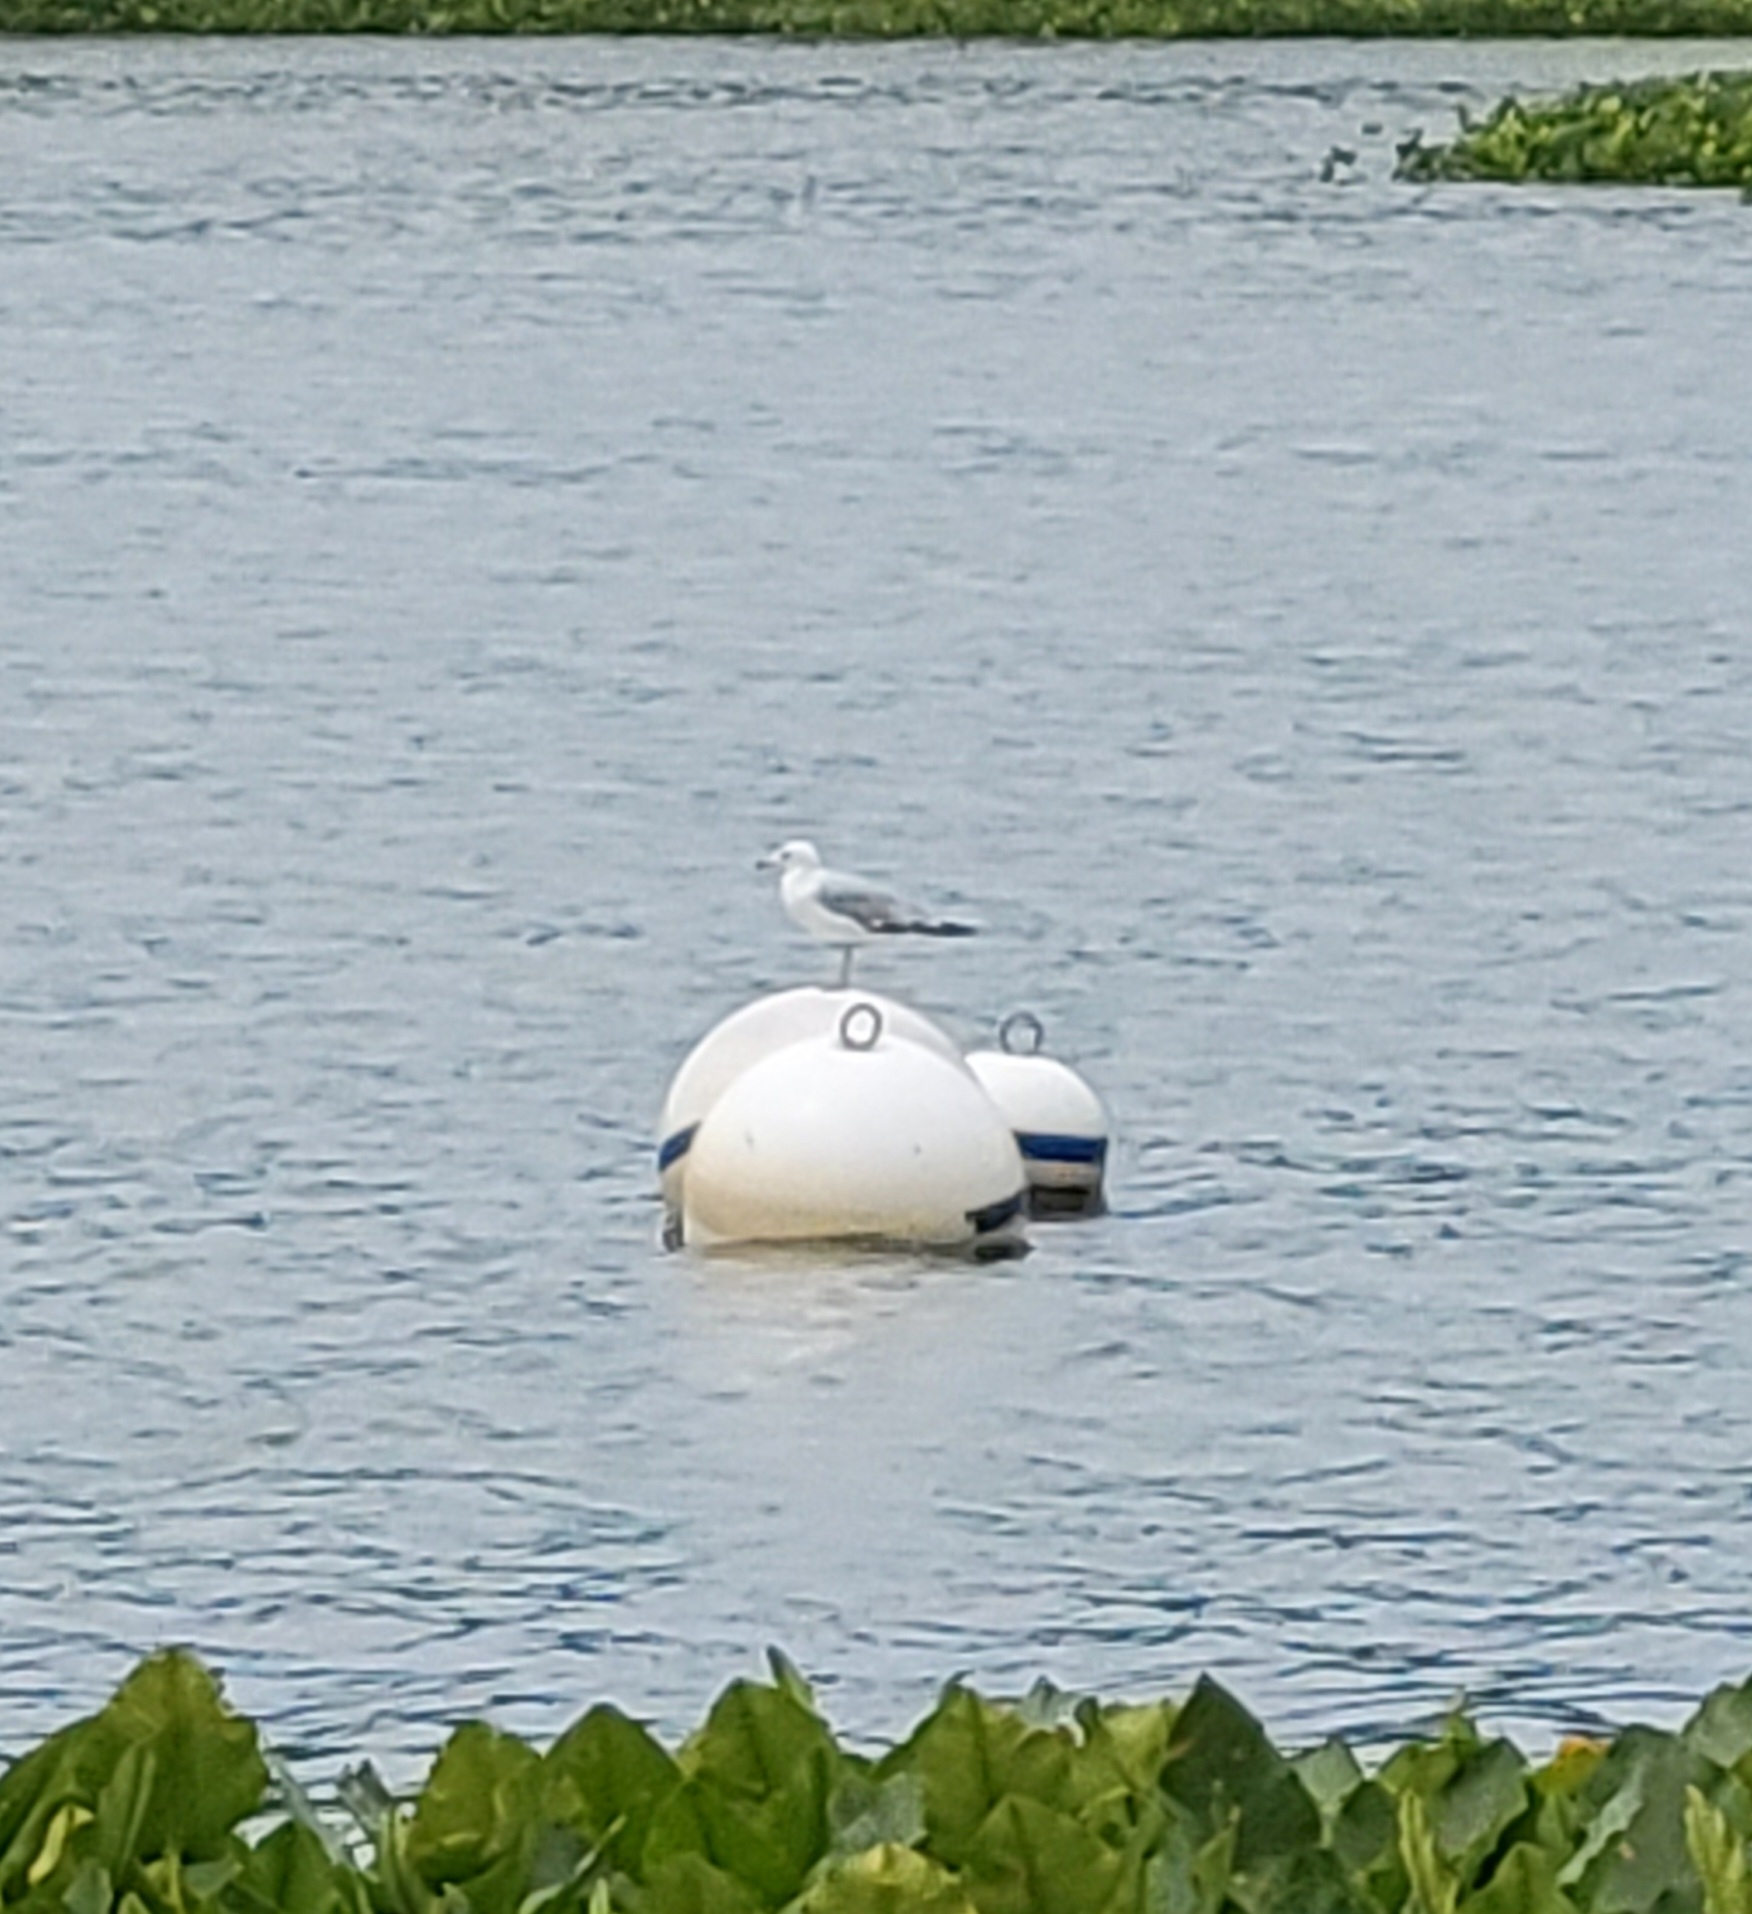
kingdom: Animalia
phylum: Chordata
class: Aves
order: Charadriiformes
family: Laridae
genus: Larus
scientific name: Larus delawarensis
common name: Ring-billed gull
